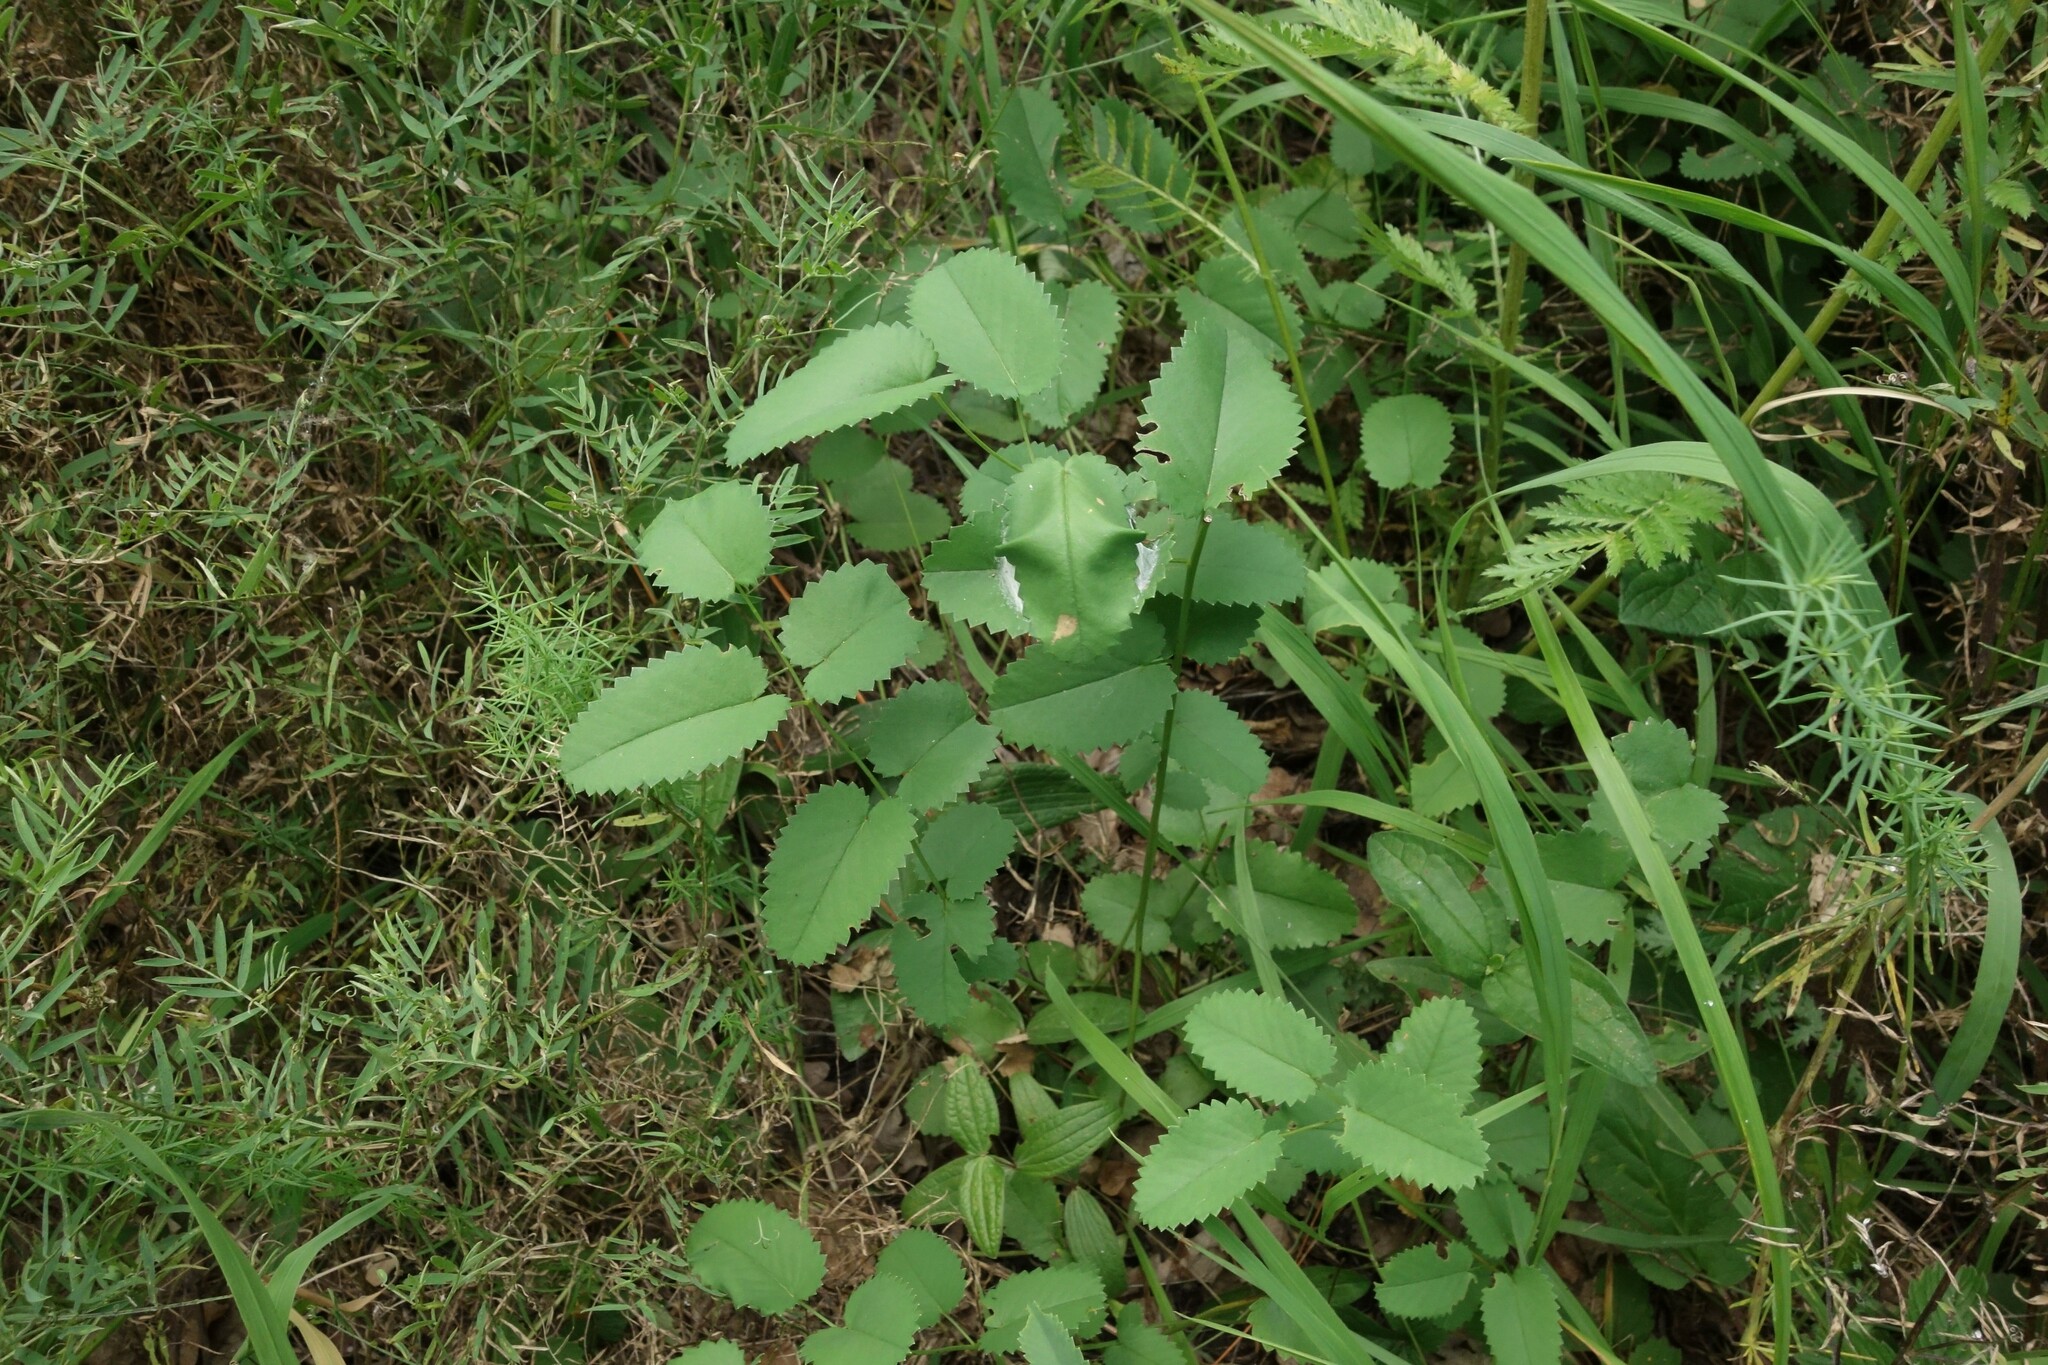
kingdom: Plantae
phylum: Tracheophyta
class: Magnoliopsida
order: Rosales
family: Rosaceae
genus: Sanguisorba
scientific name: Sanguisorba officinalis
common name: Great burnet
